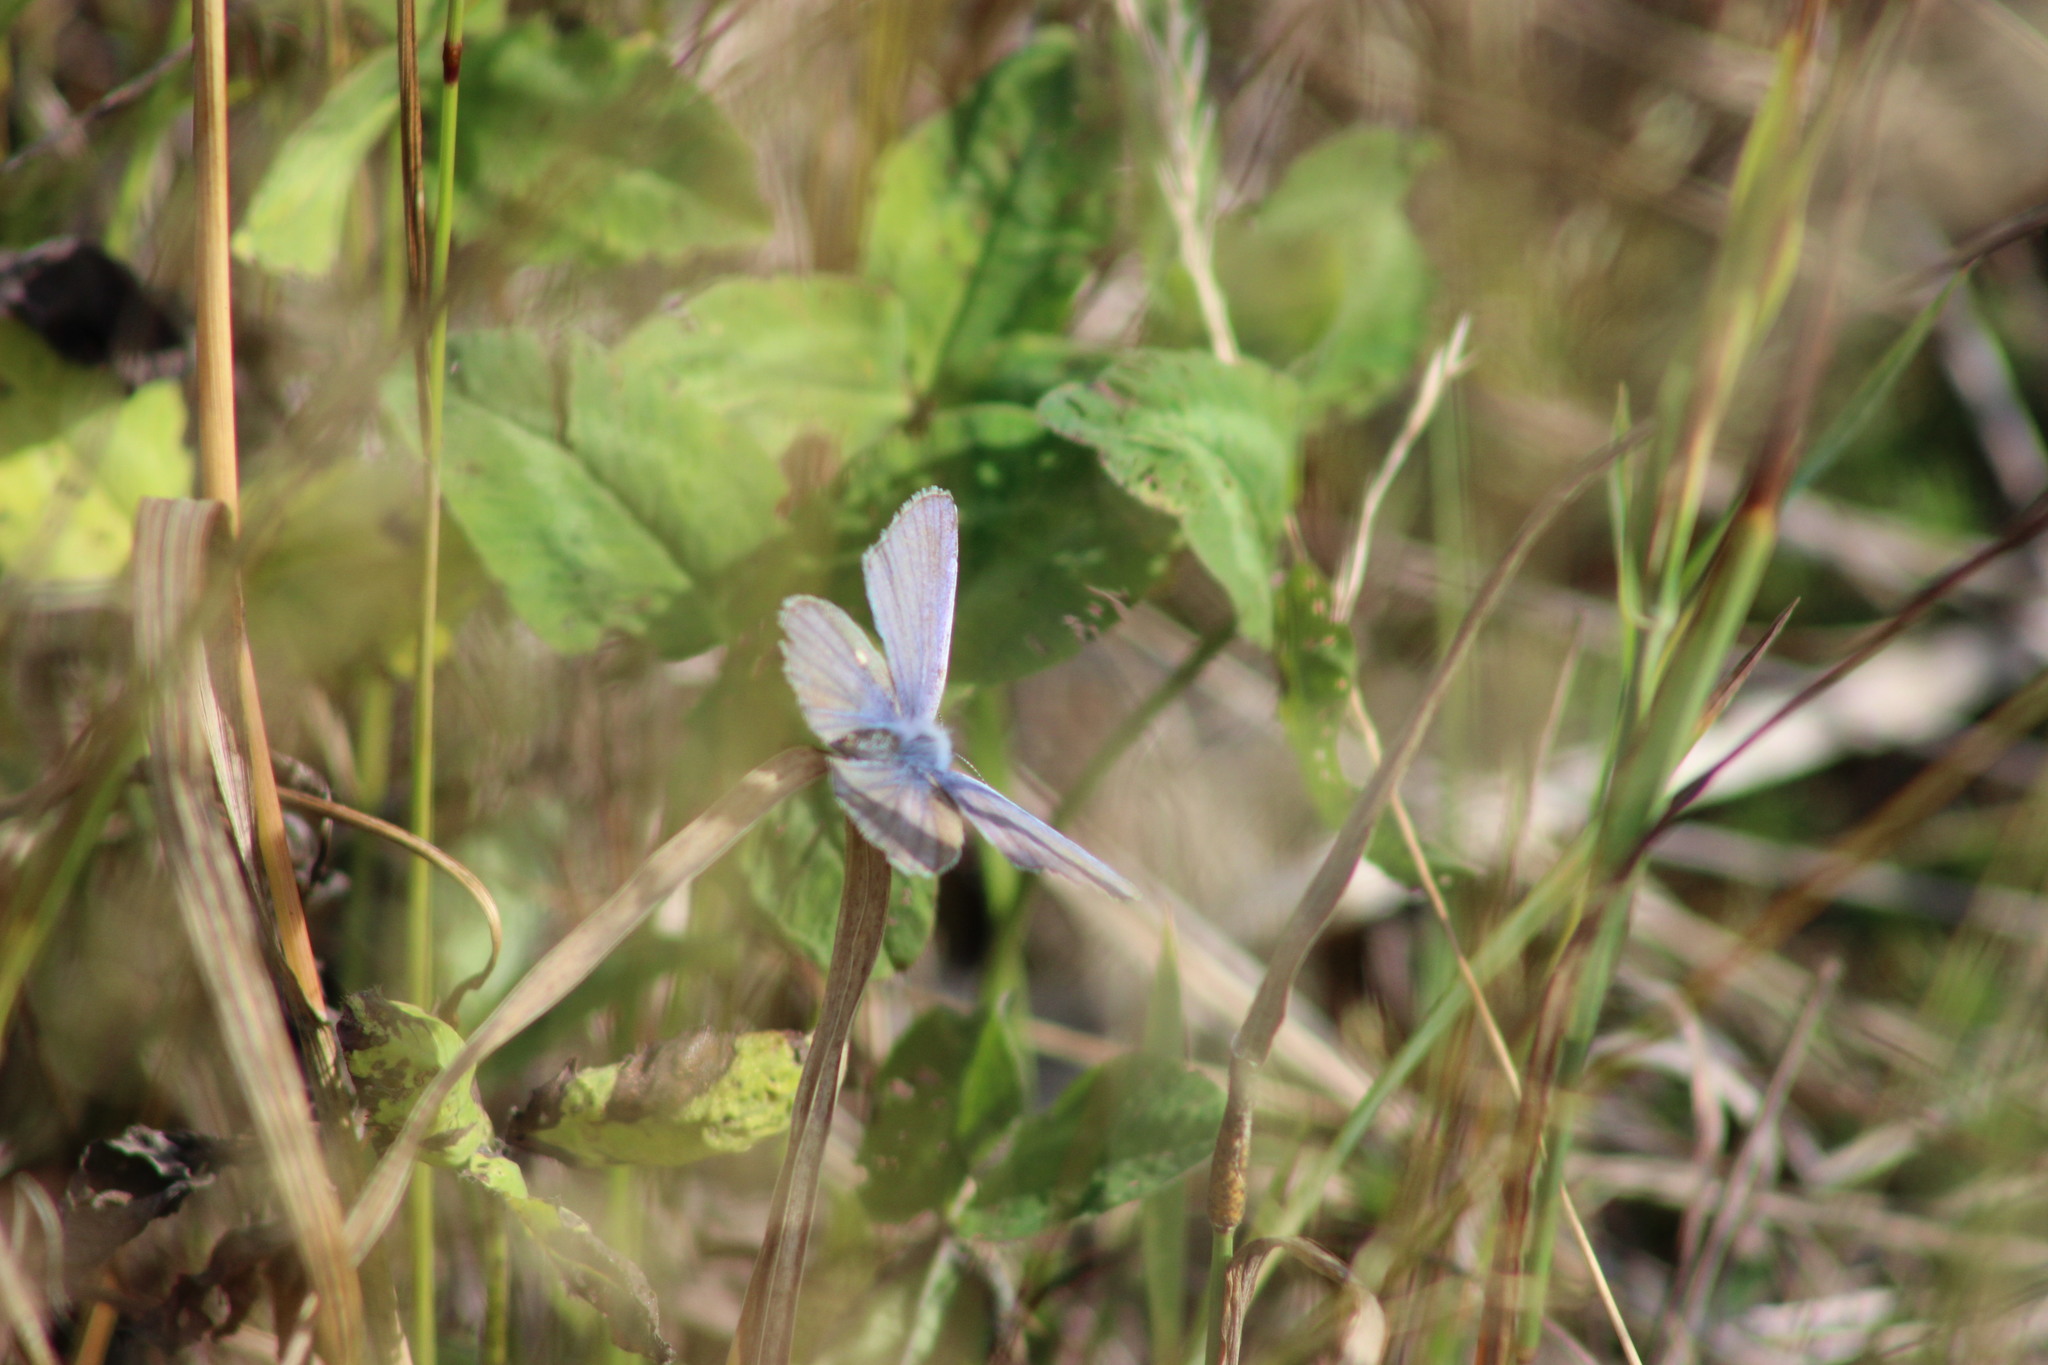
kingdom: Animalia
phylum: Arthropoda
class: Insecta
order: Lepidoptera
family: Lycaenidae
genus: Polyommatus
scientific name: Polyommatus icarus
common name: Common blue
